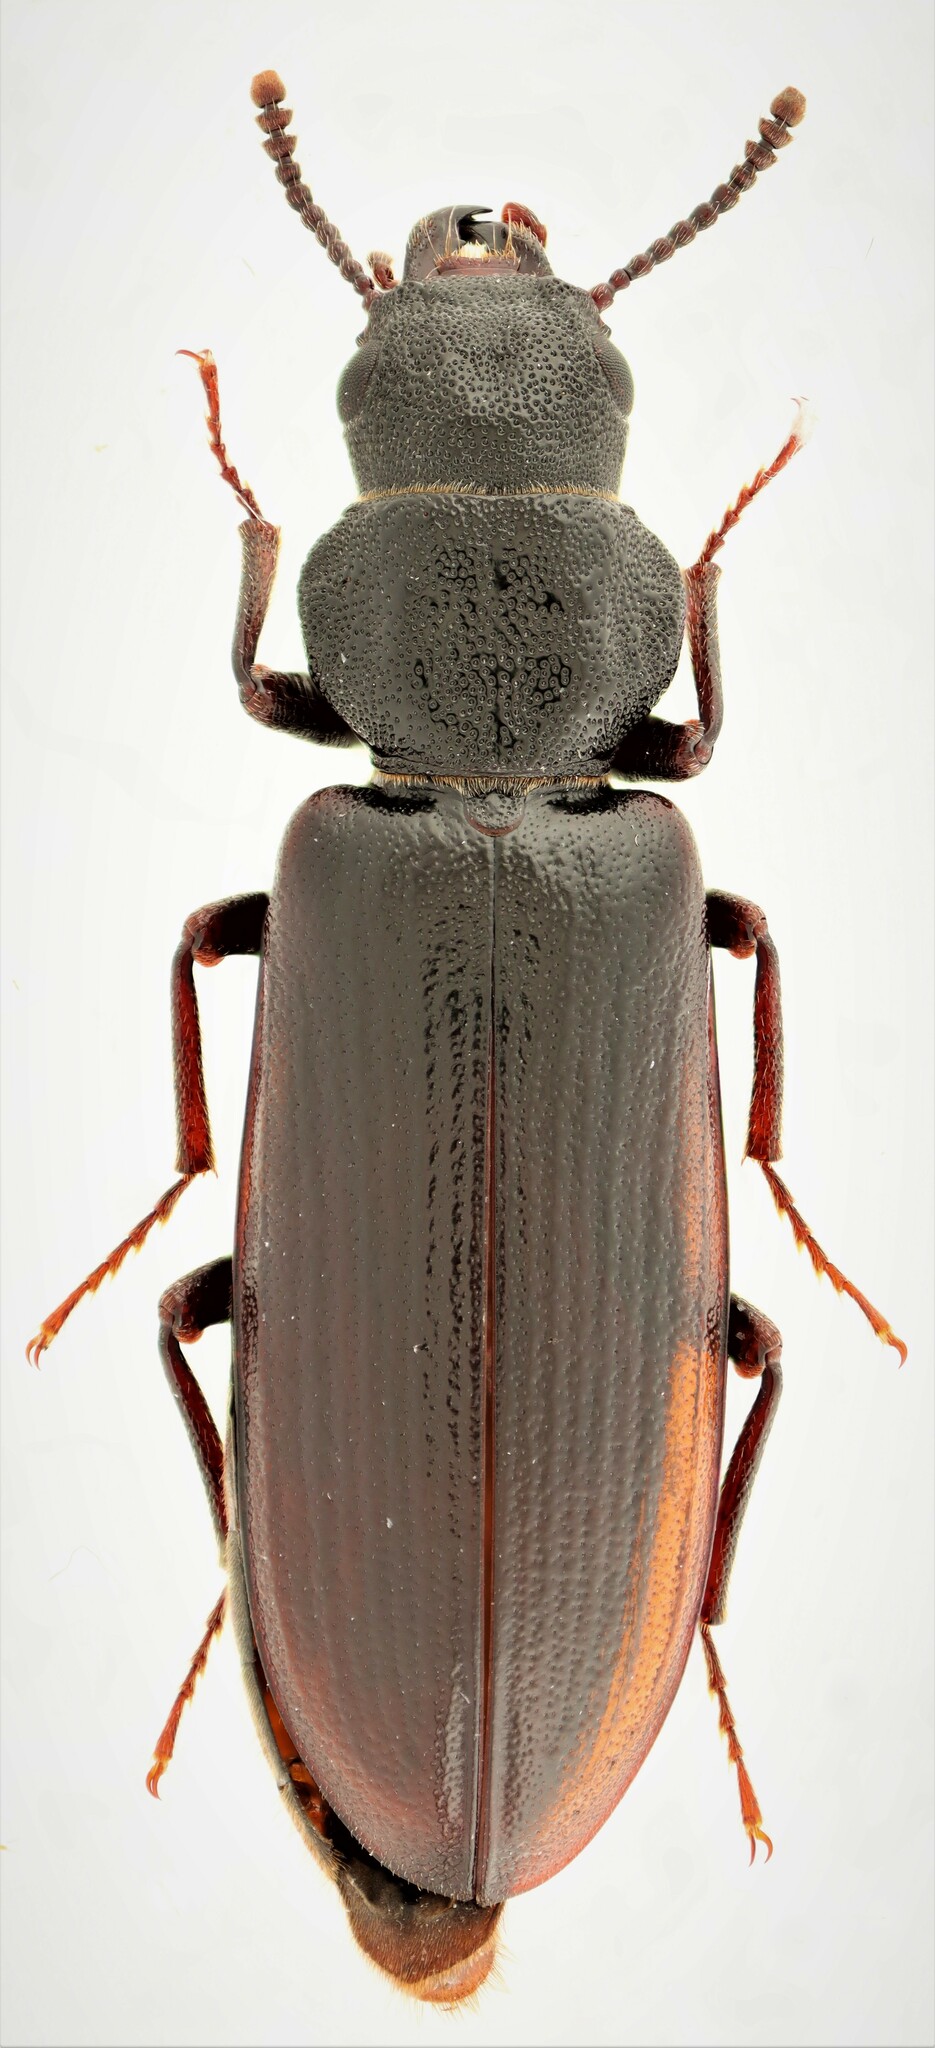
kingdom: Animalia
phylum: Arthropoda
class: Insecta
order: Coleoptera
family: Boridae
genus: Lecontia
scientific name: Lecontia discicollis
